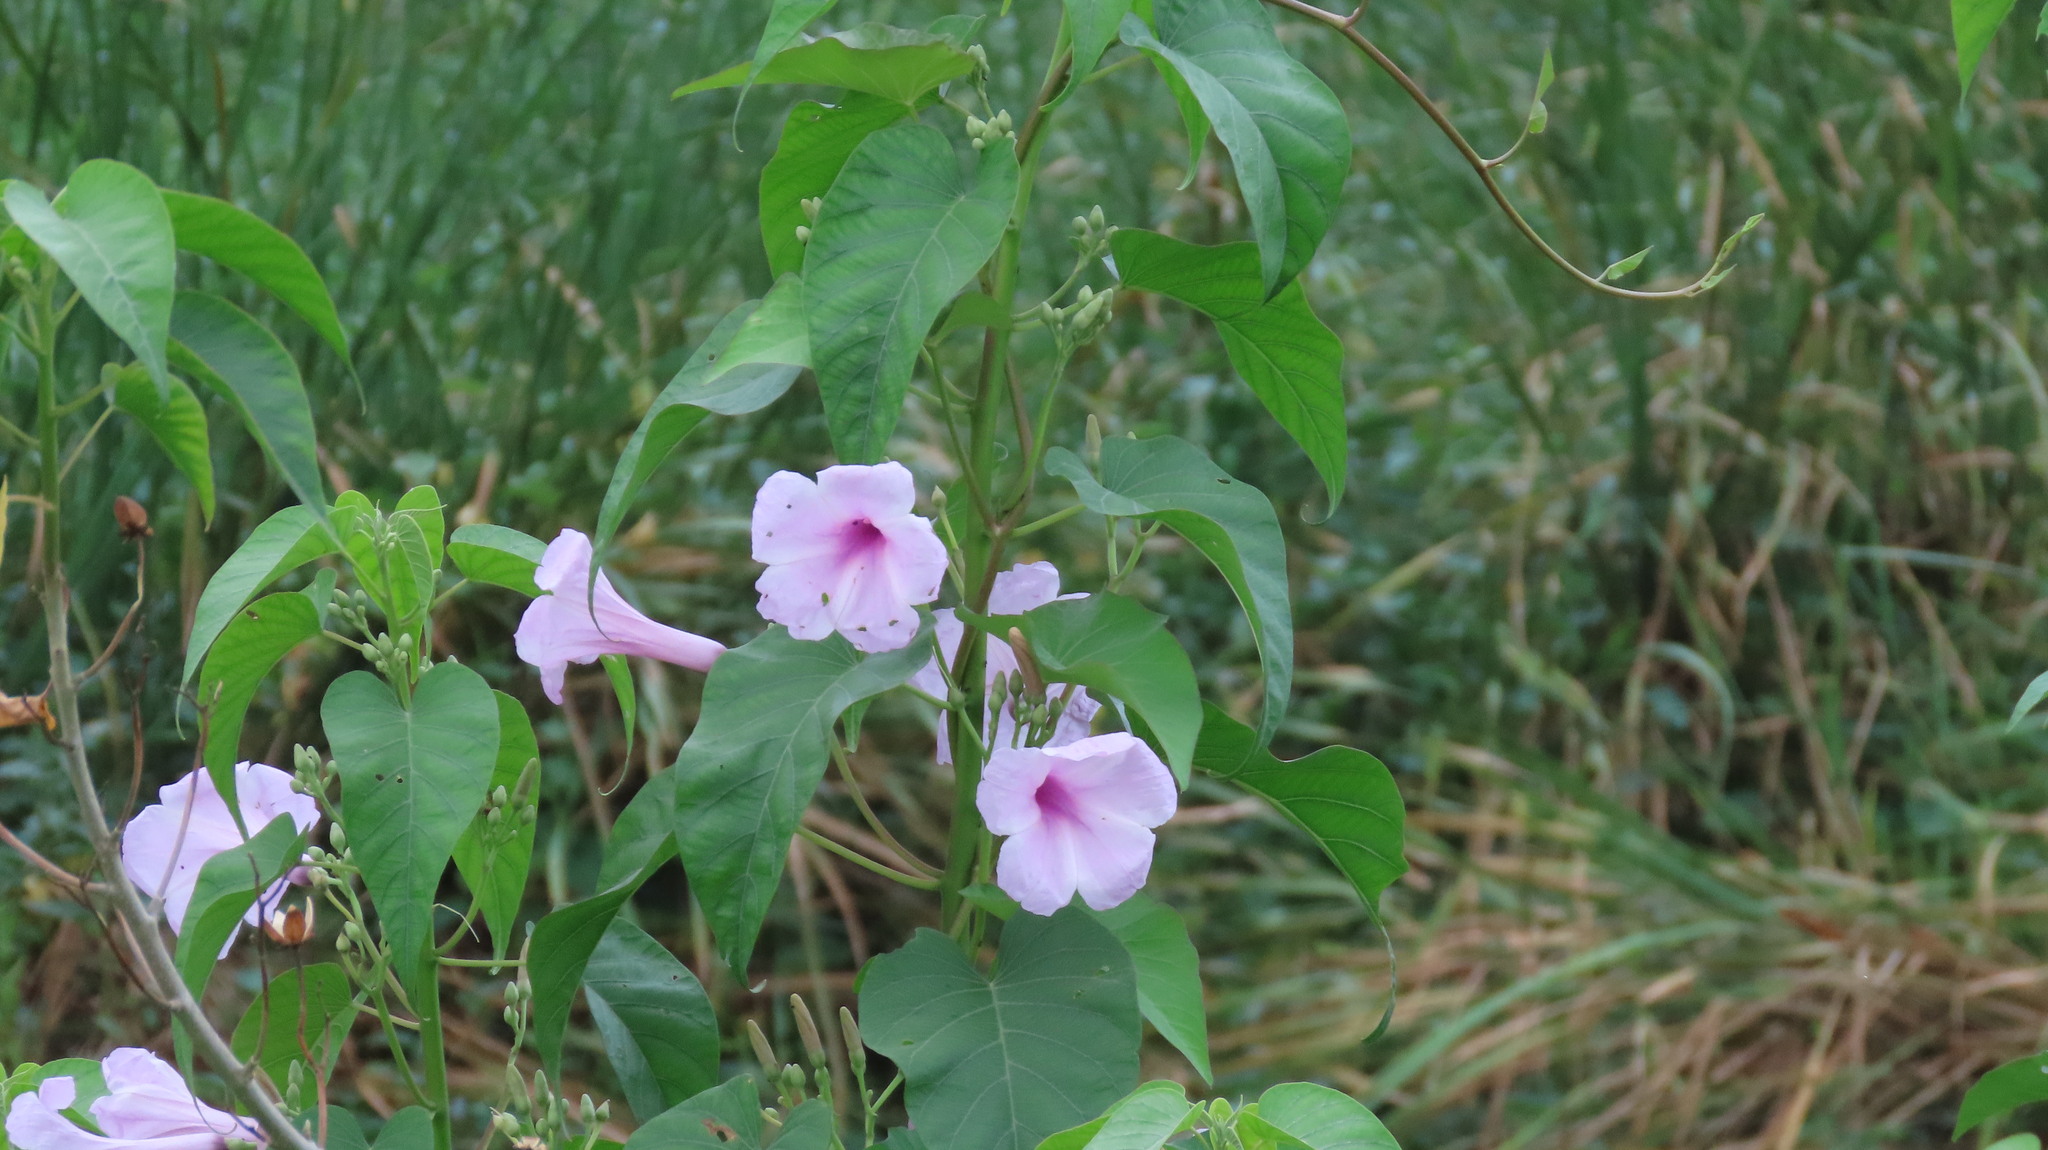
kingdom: Plantae
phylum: Tracheophyta
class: Magnoliopsida
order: Solanales
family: Convolvulaceae
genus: Ipomoea
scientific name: Ipomoea carnea
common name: Morning-glory
